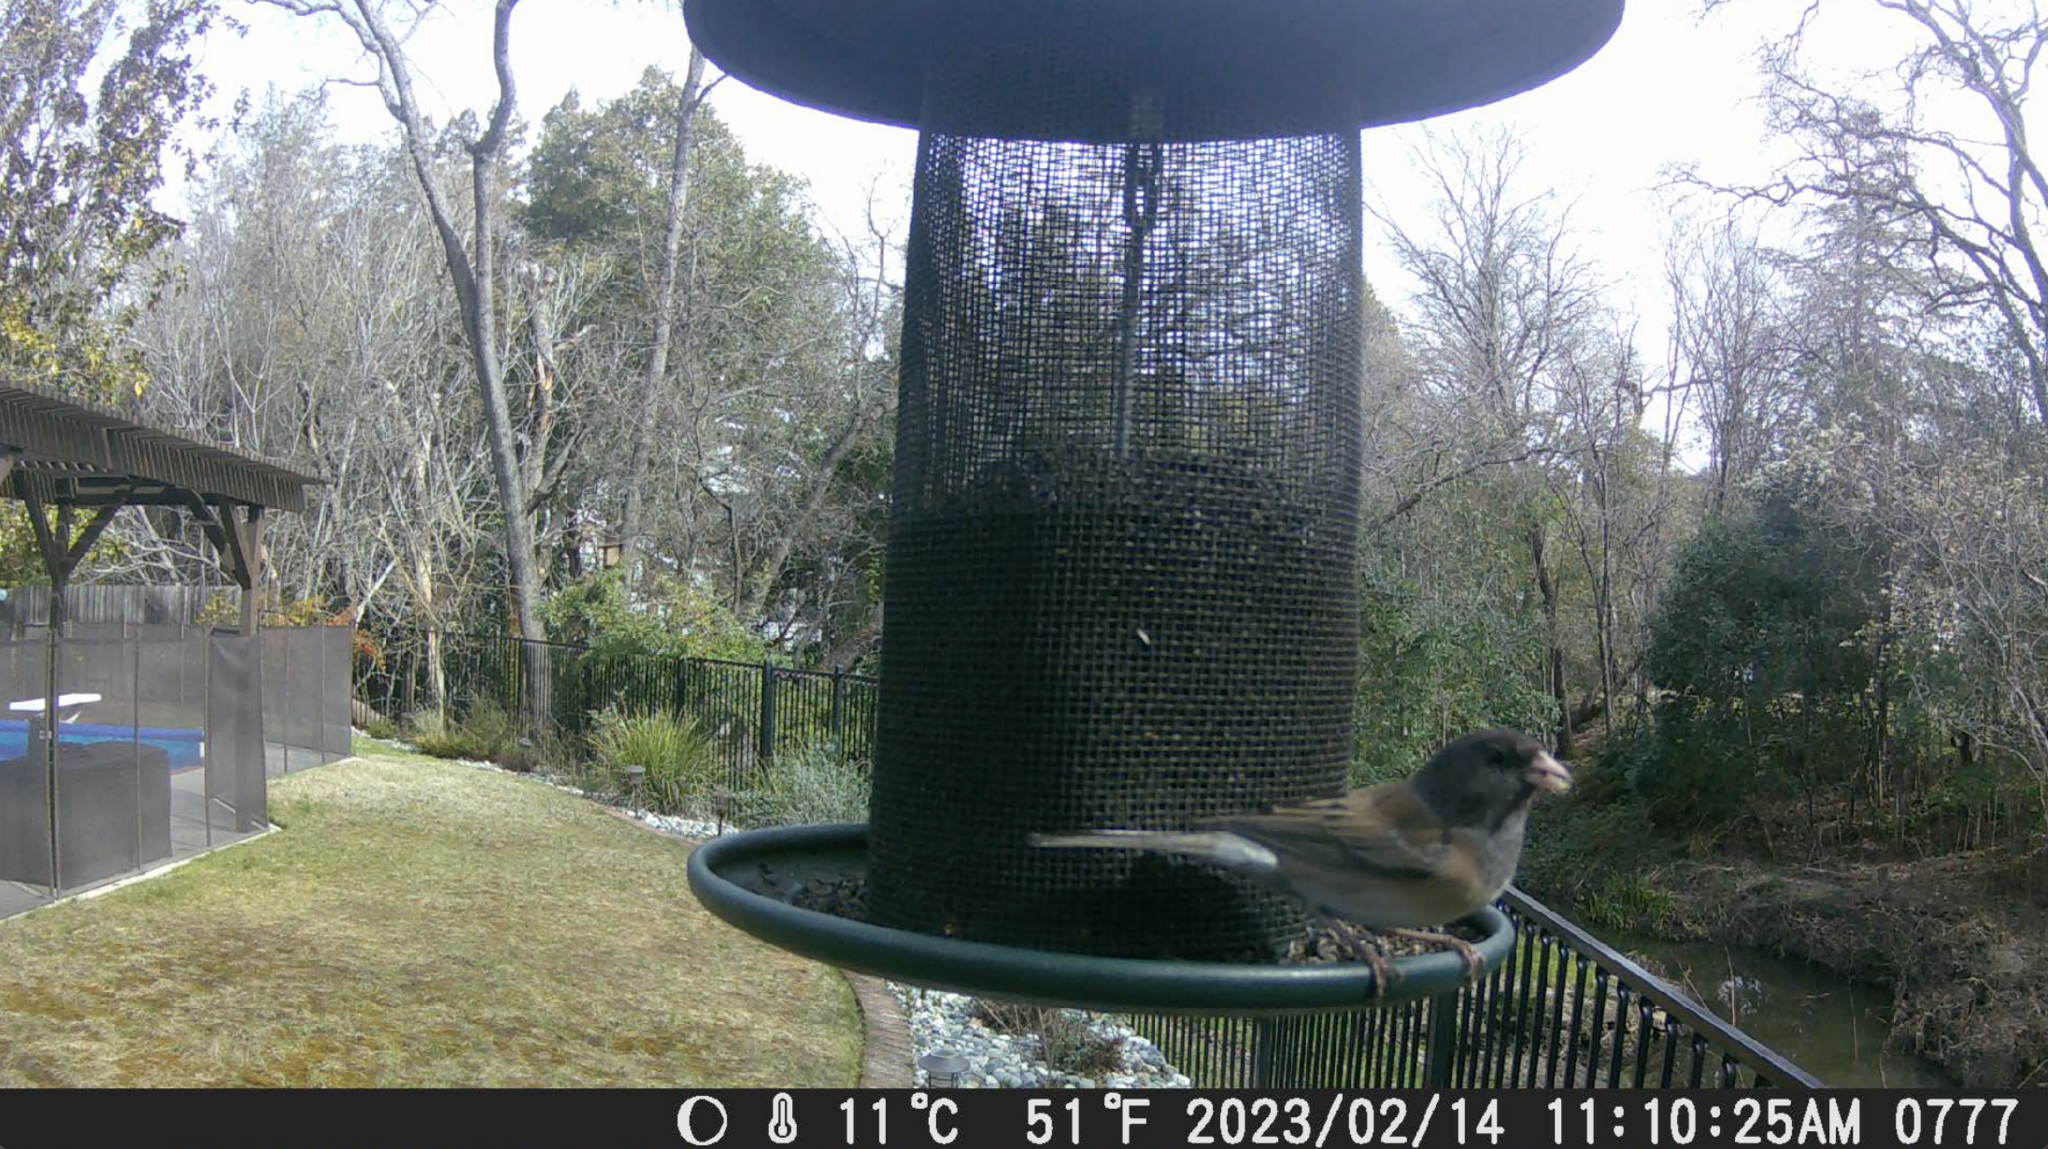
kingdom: Animalia
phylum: Chordata
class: Aves
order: Passeriformes
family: Passerellidae
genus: Junco
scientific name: Junco hyemalis
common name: Dark-eyed junco
